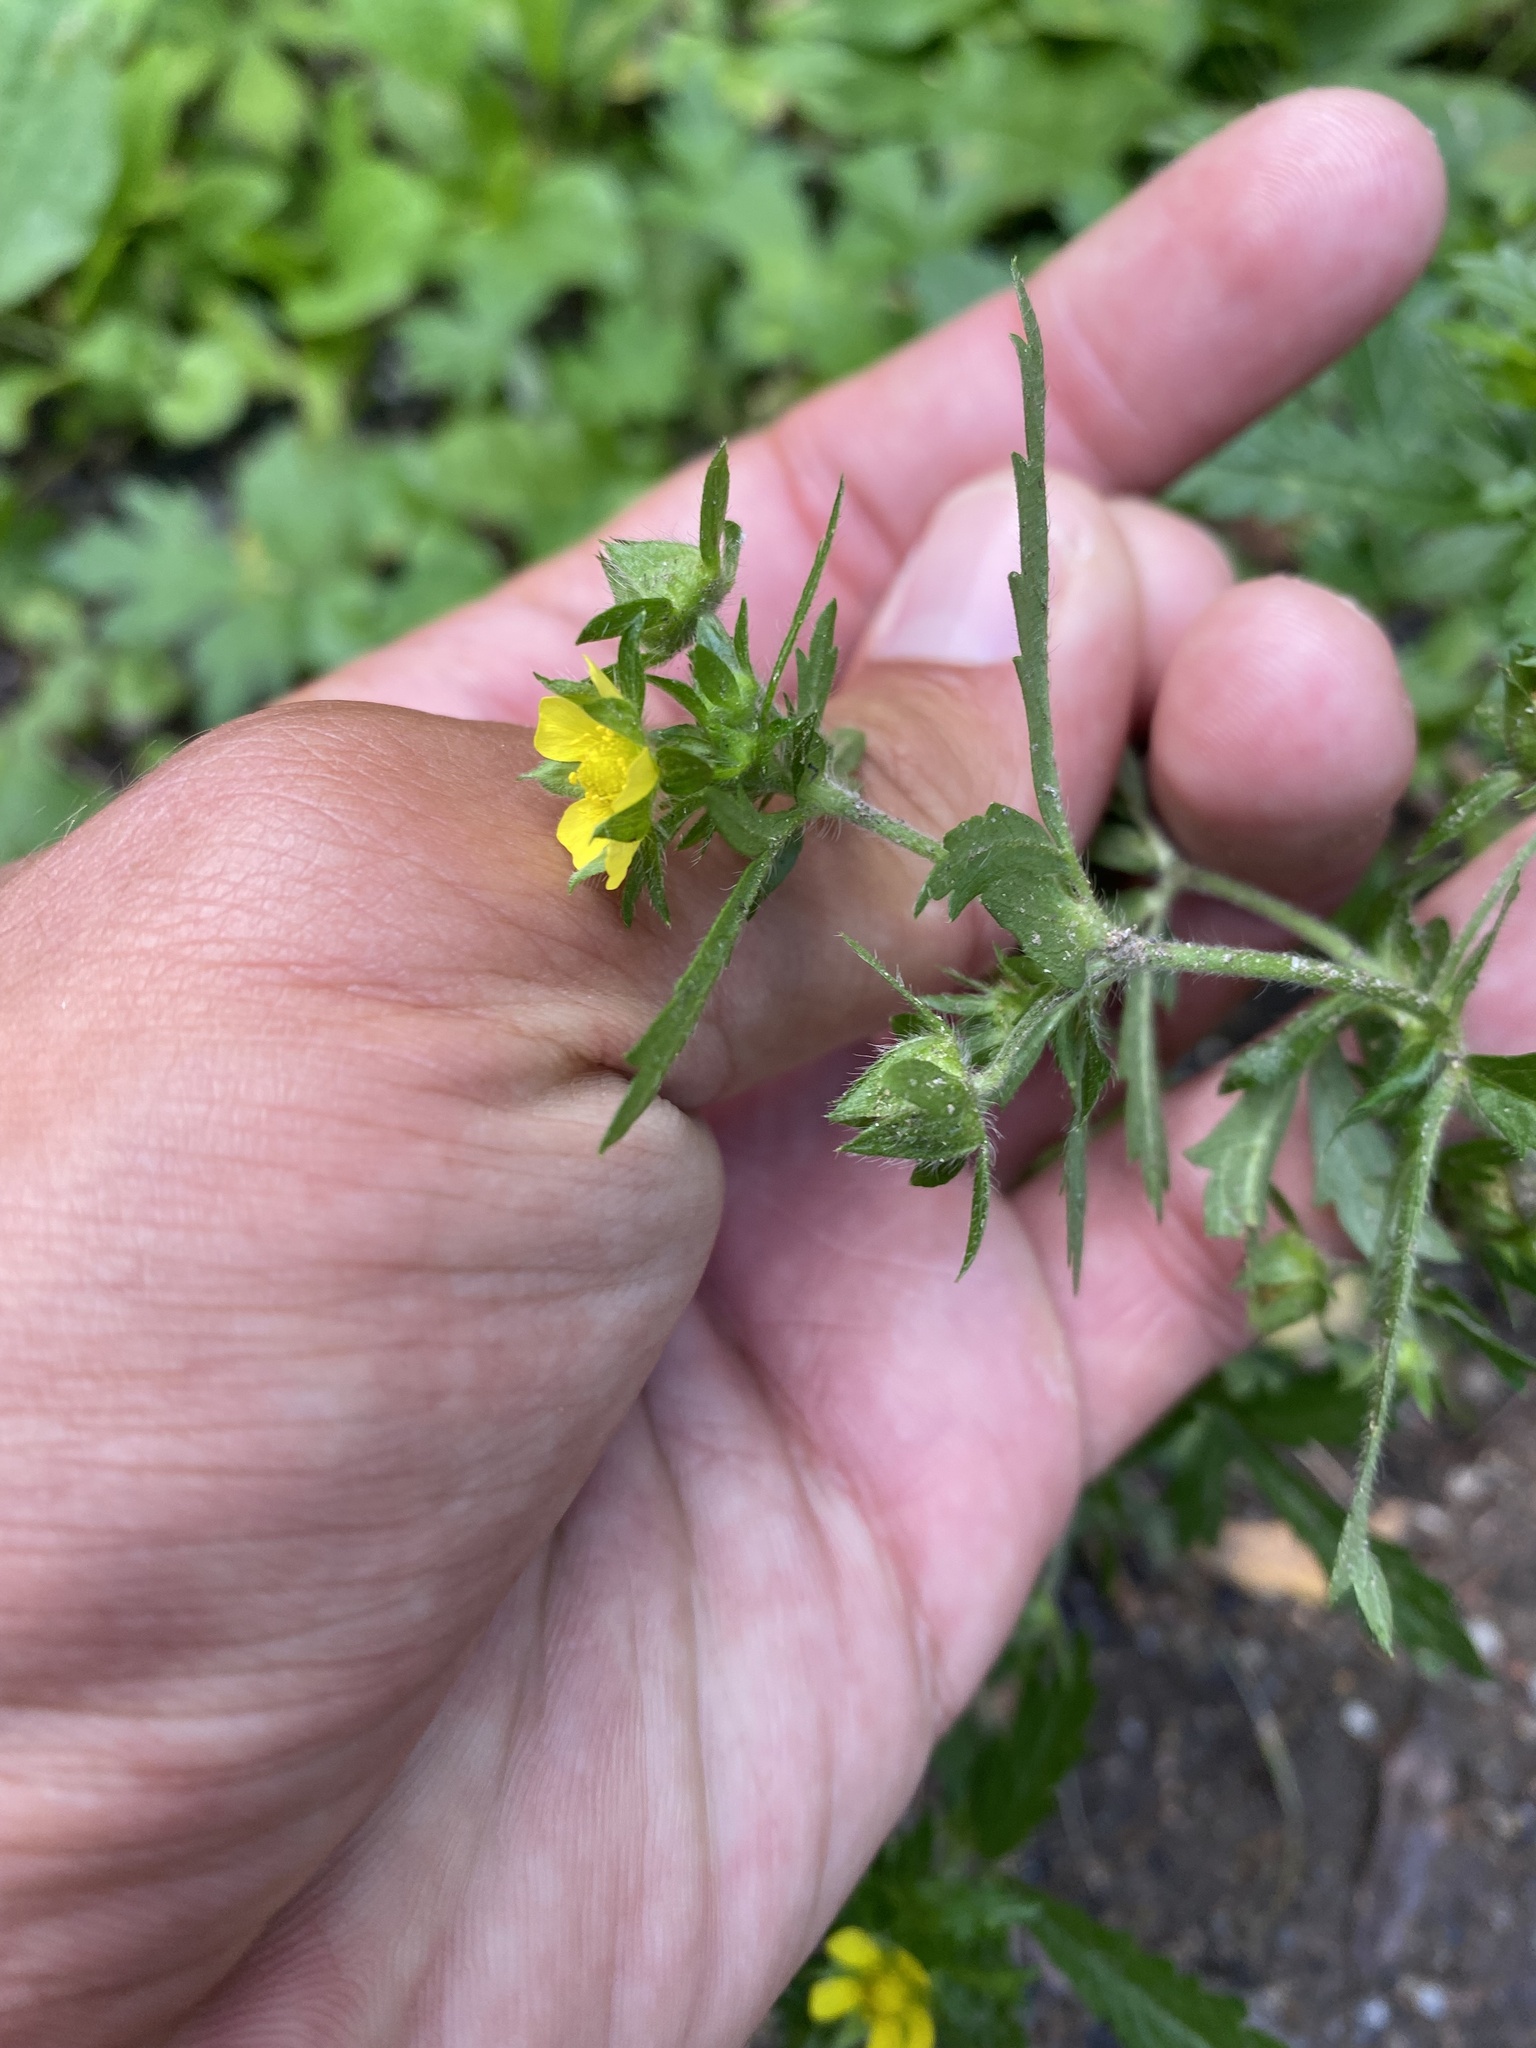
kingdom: Plantae
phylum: Tracheophyta
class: Magnoliopsida
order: Rosales
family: Rosaceae
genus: Potentilla
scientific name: Potentilla norvegica
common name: Ternate-leaved cinquefoil
